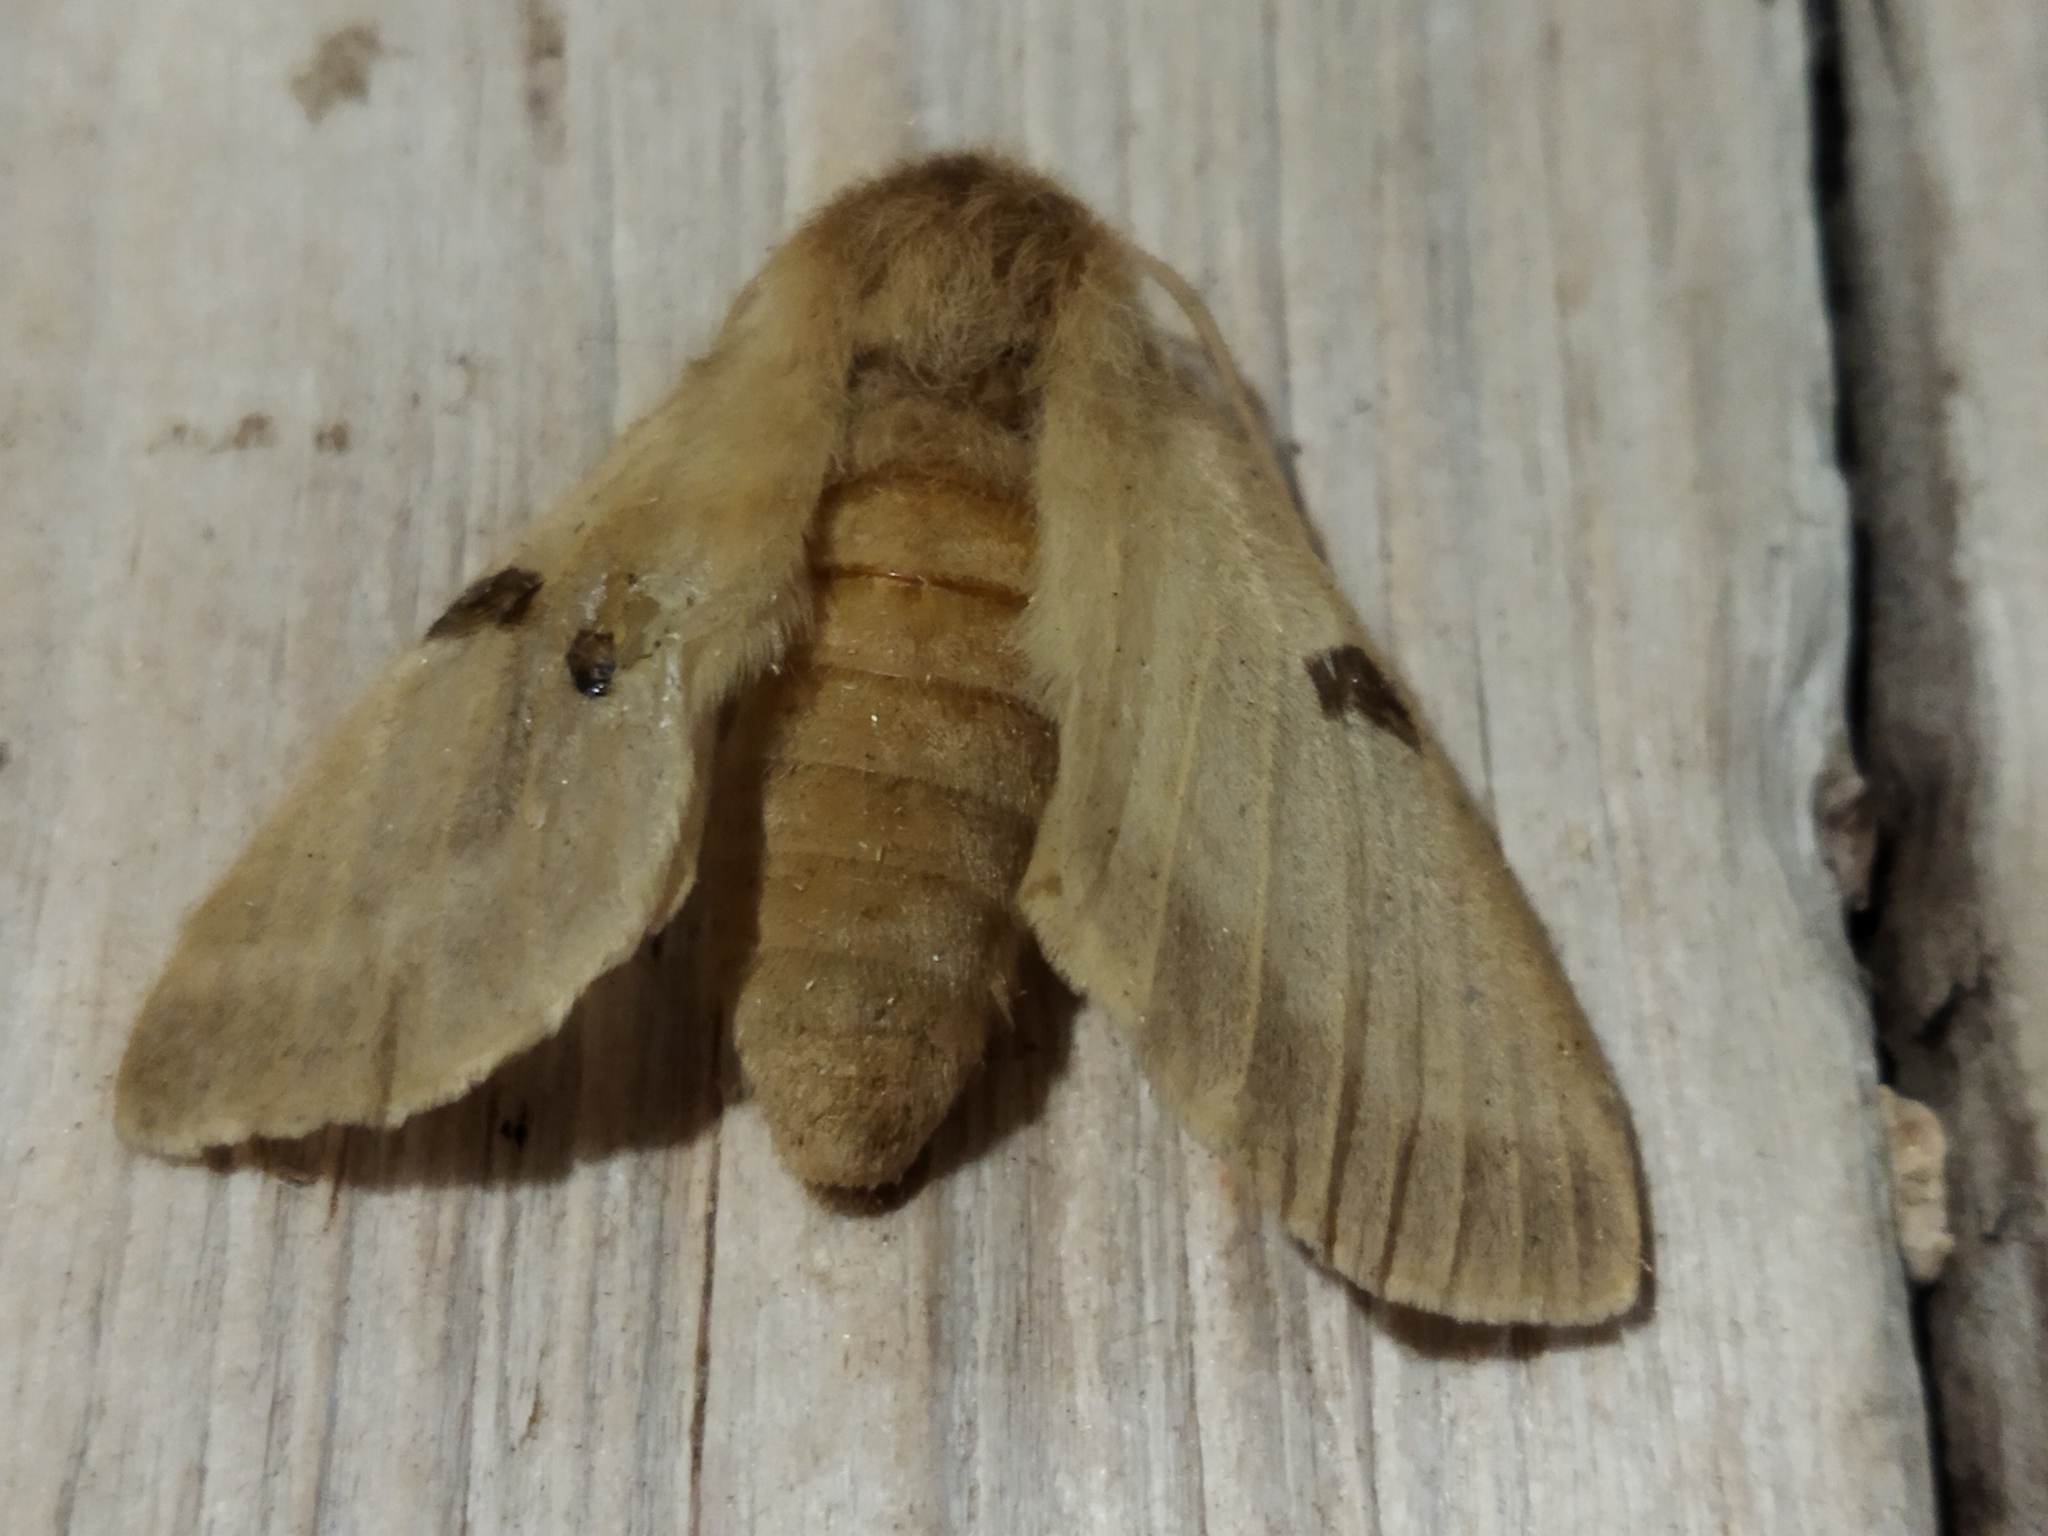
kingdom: Animalia
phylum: Arthropoda
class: Insecta
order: Lepidoptera
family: Brahmaeidae
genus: Lemonia
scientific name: Lemonia balcanica
